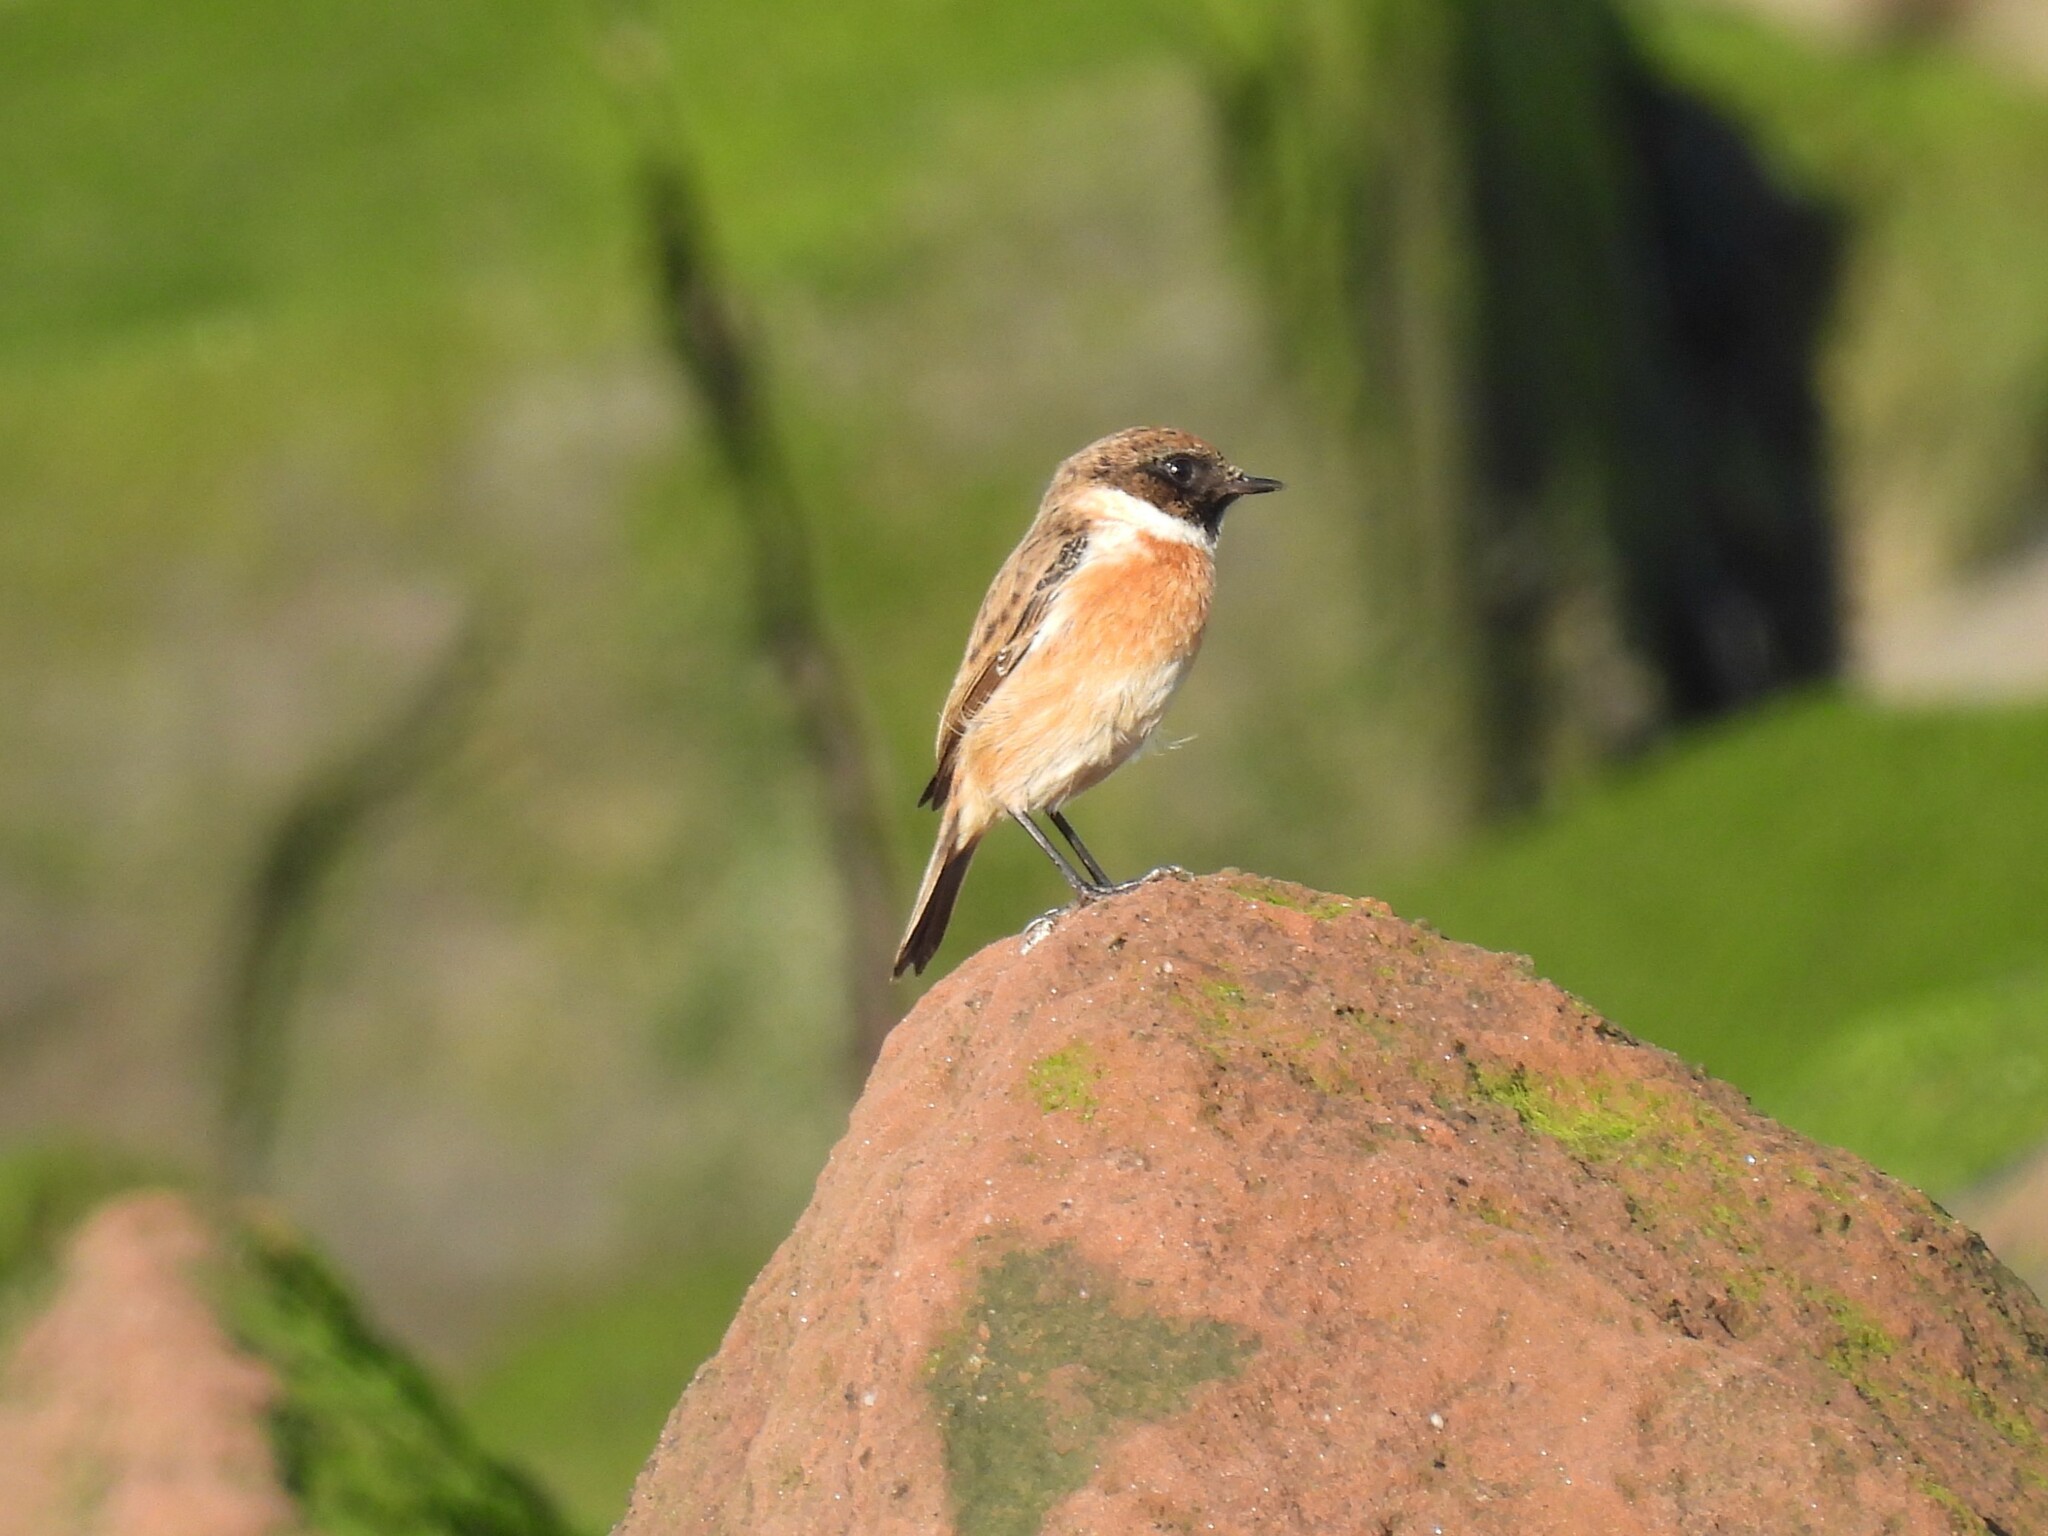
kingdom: Animalia
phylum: Chordata
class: Aves
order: Passeriformes
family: Muscicapidae
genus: Saxicola
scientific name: Saxicola rubicola
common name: European stonechat
